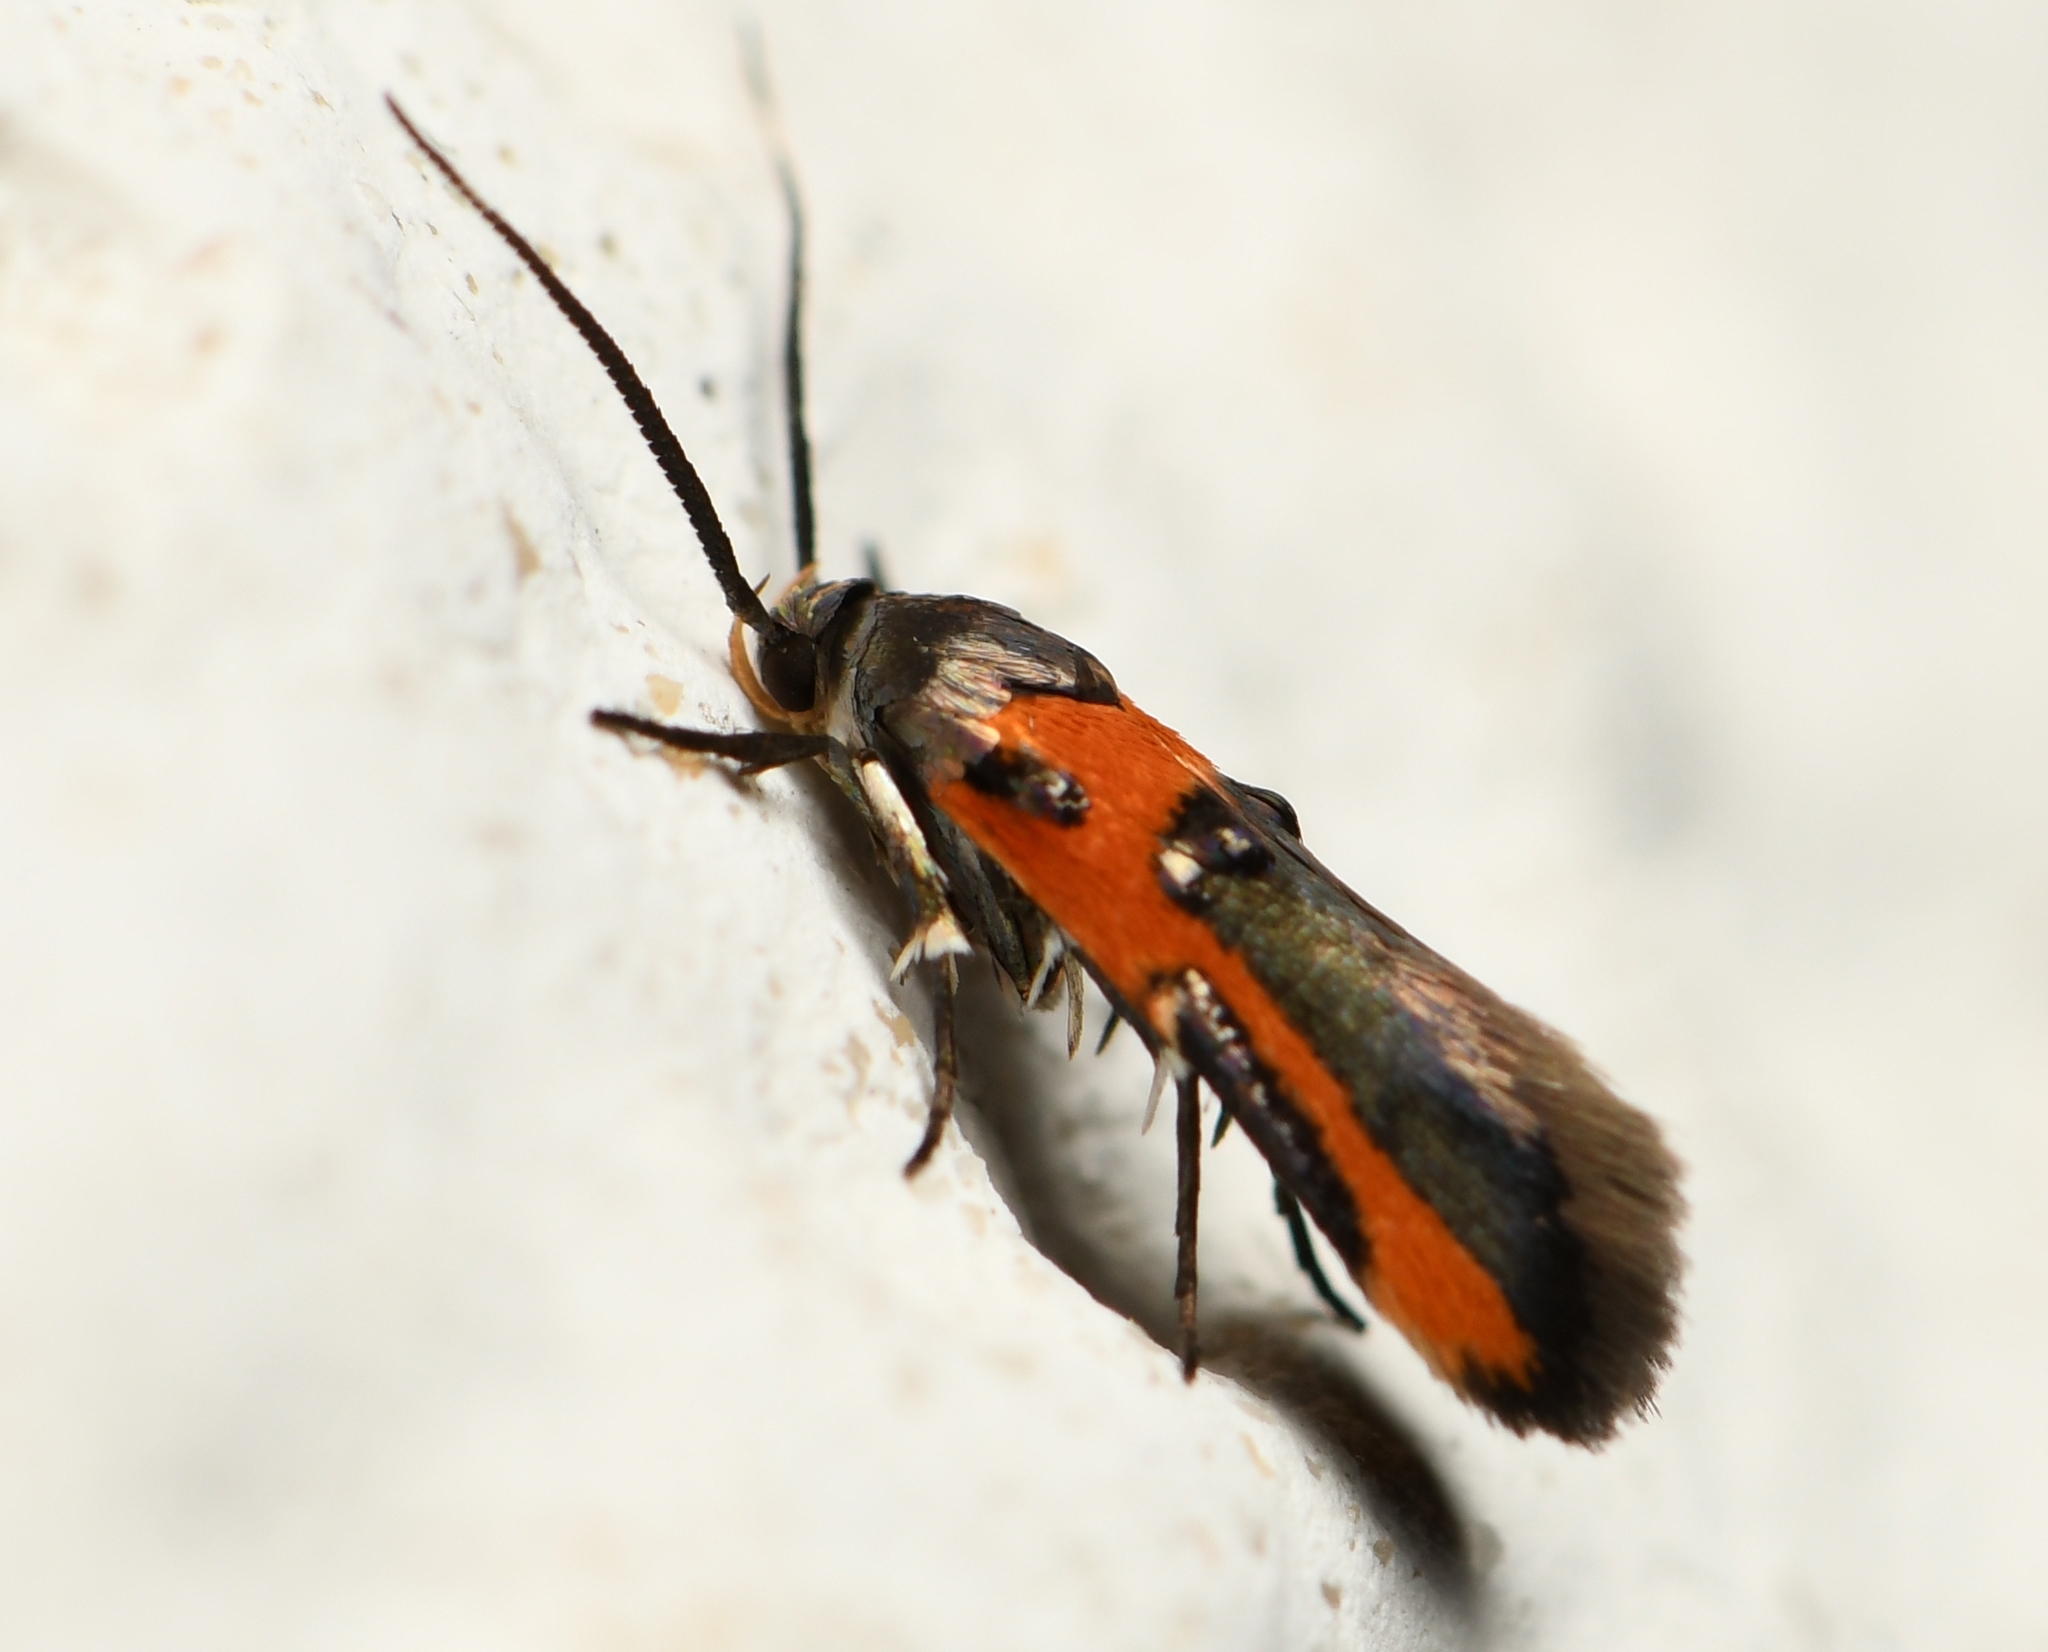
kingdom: Animalia
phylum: Arthropoda
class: Insecta
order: Lepidoptera
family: Cosmopterigidae
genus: Euclemensia
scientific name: Euclemensia bassettella
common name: Kermes scale moth
